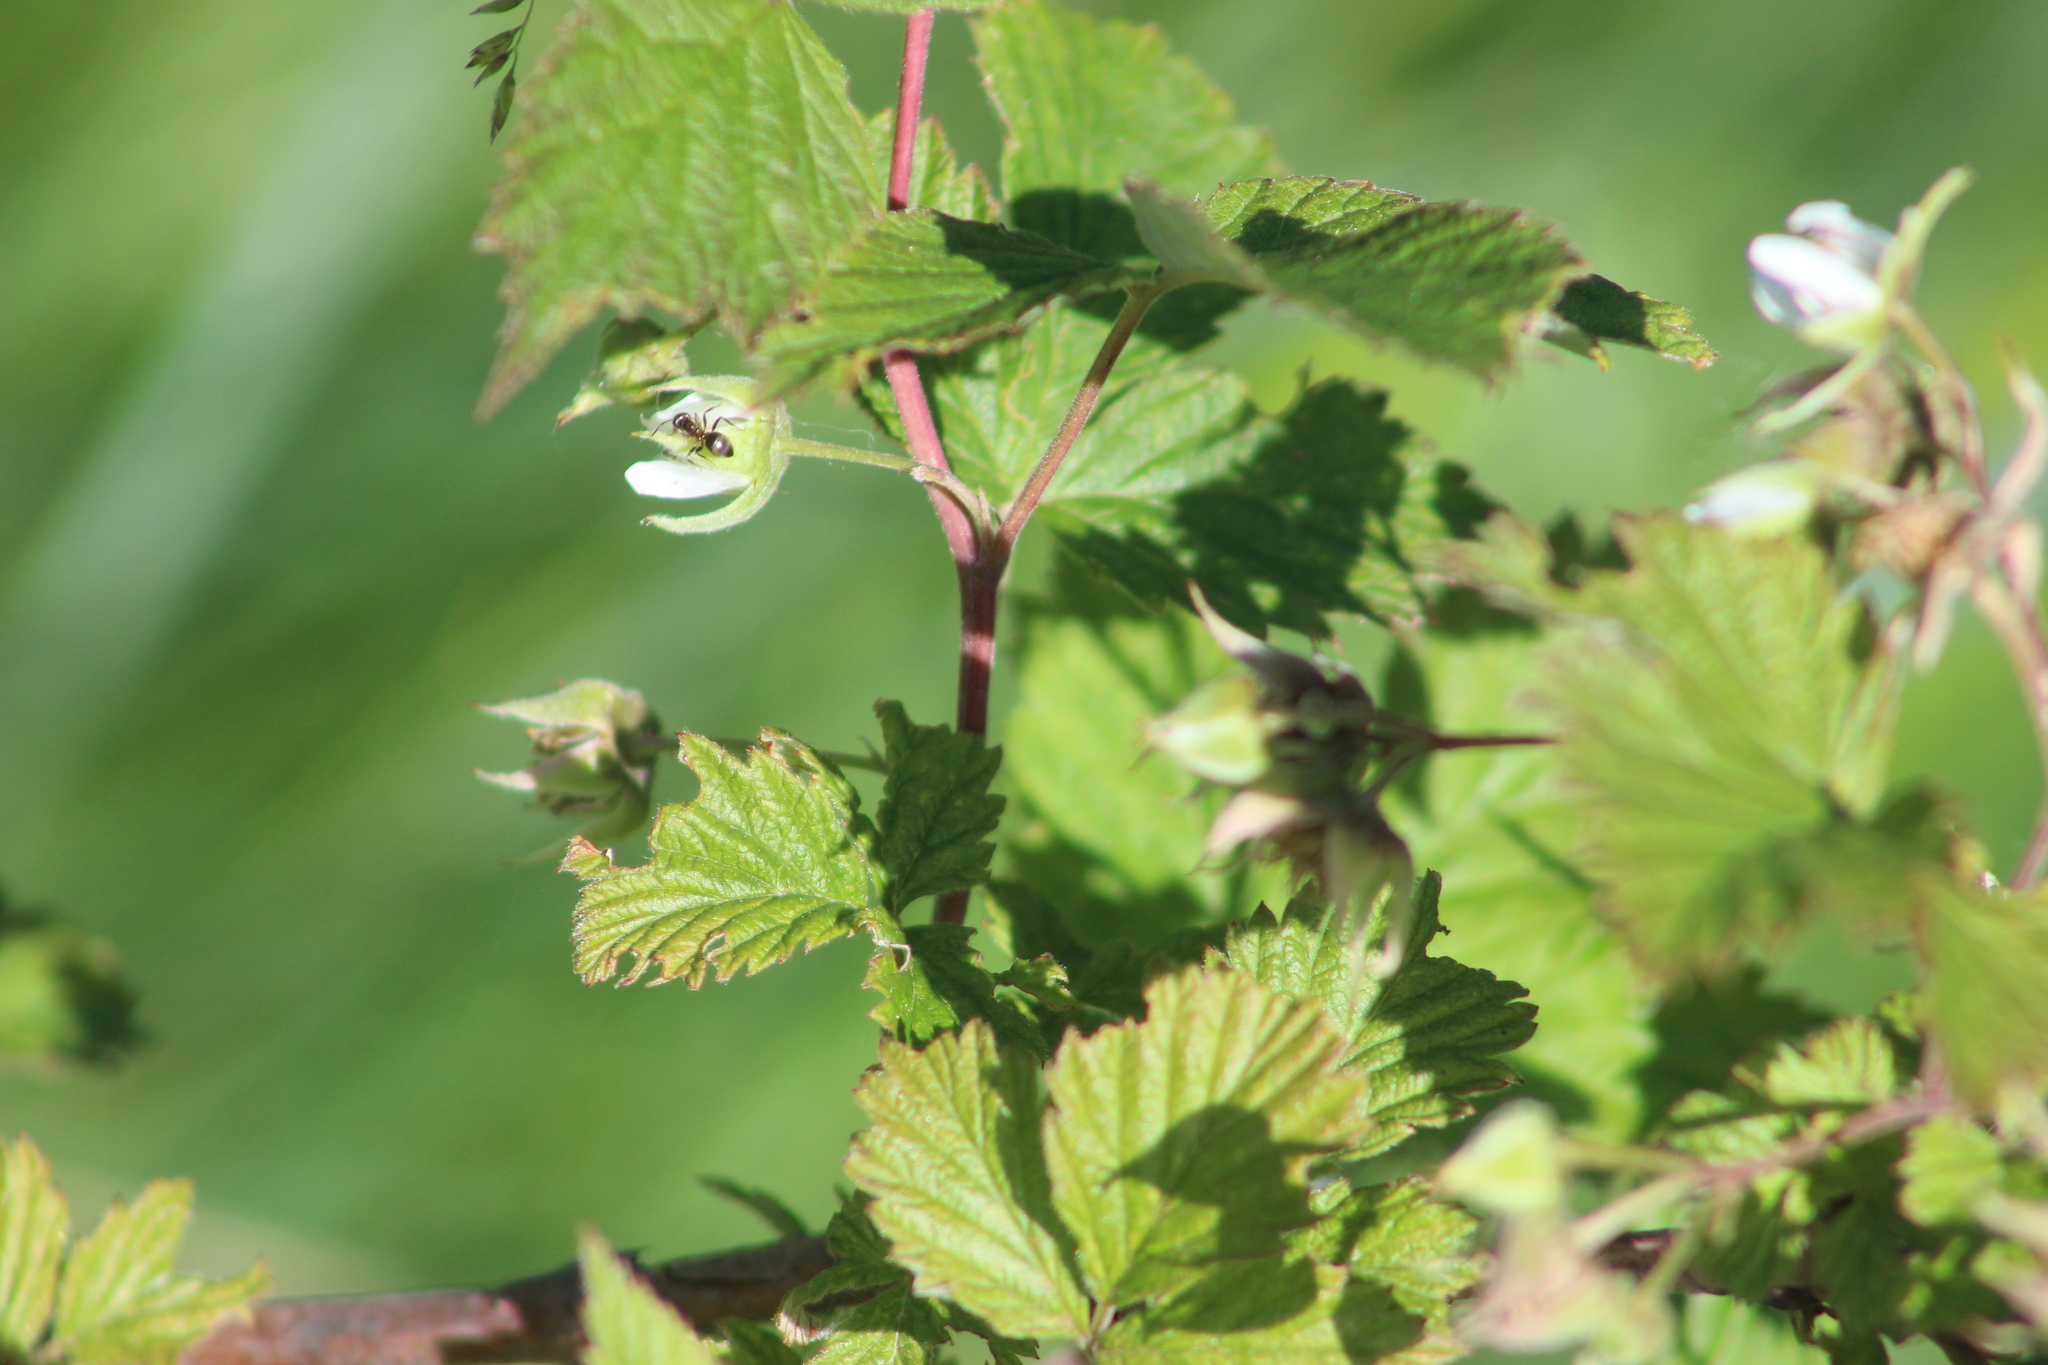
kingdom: Plantae
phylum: Tracheophyta
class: Magnoliopsida
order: Rosales
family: Rosaceae
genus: Rubus
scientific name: Rubus idaeus
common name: Raspberry
